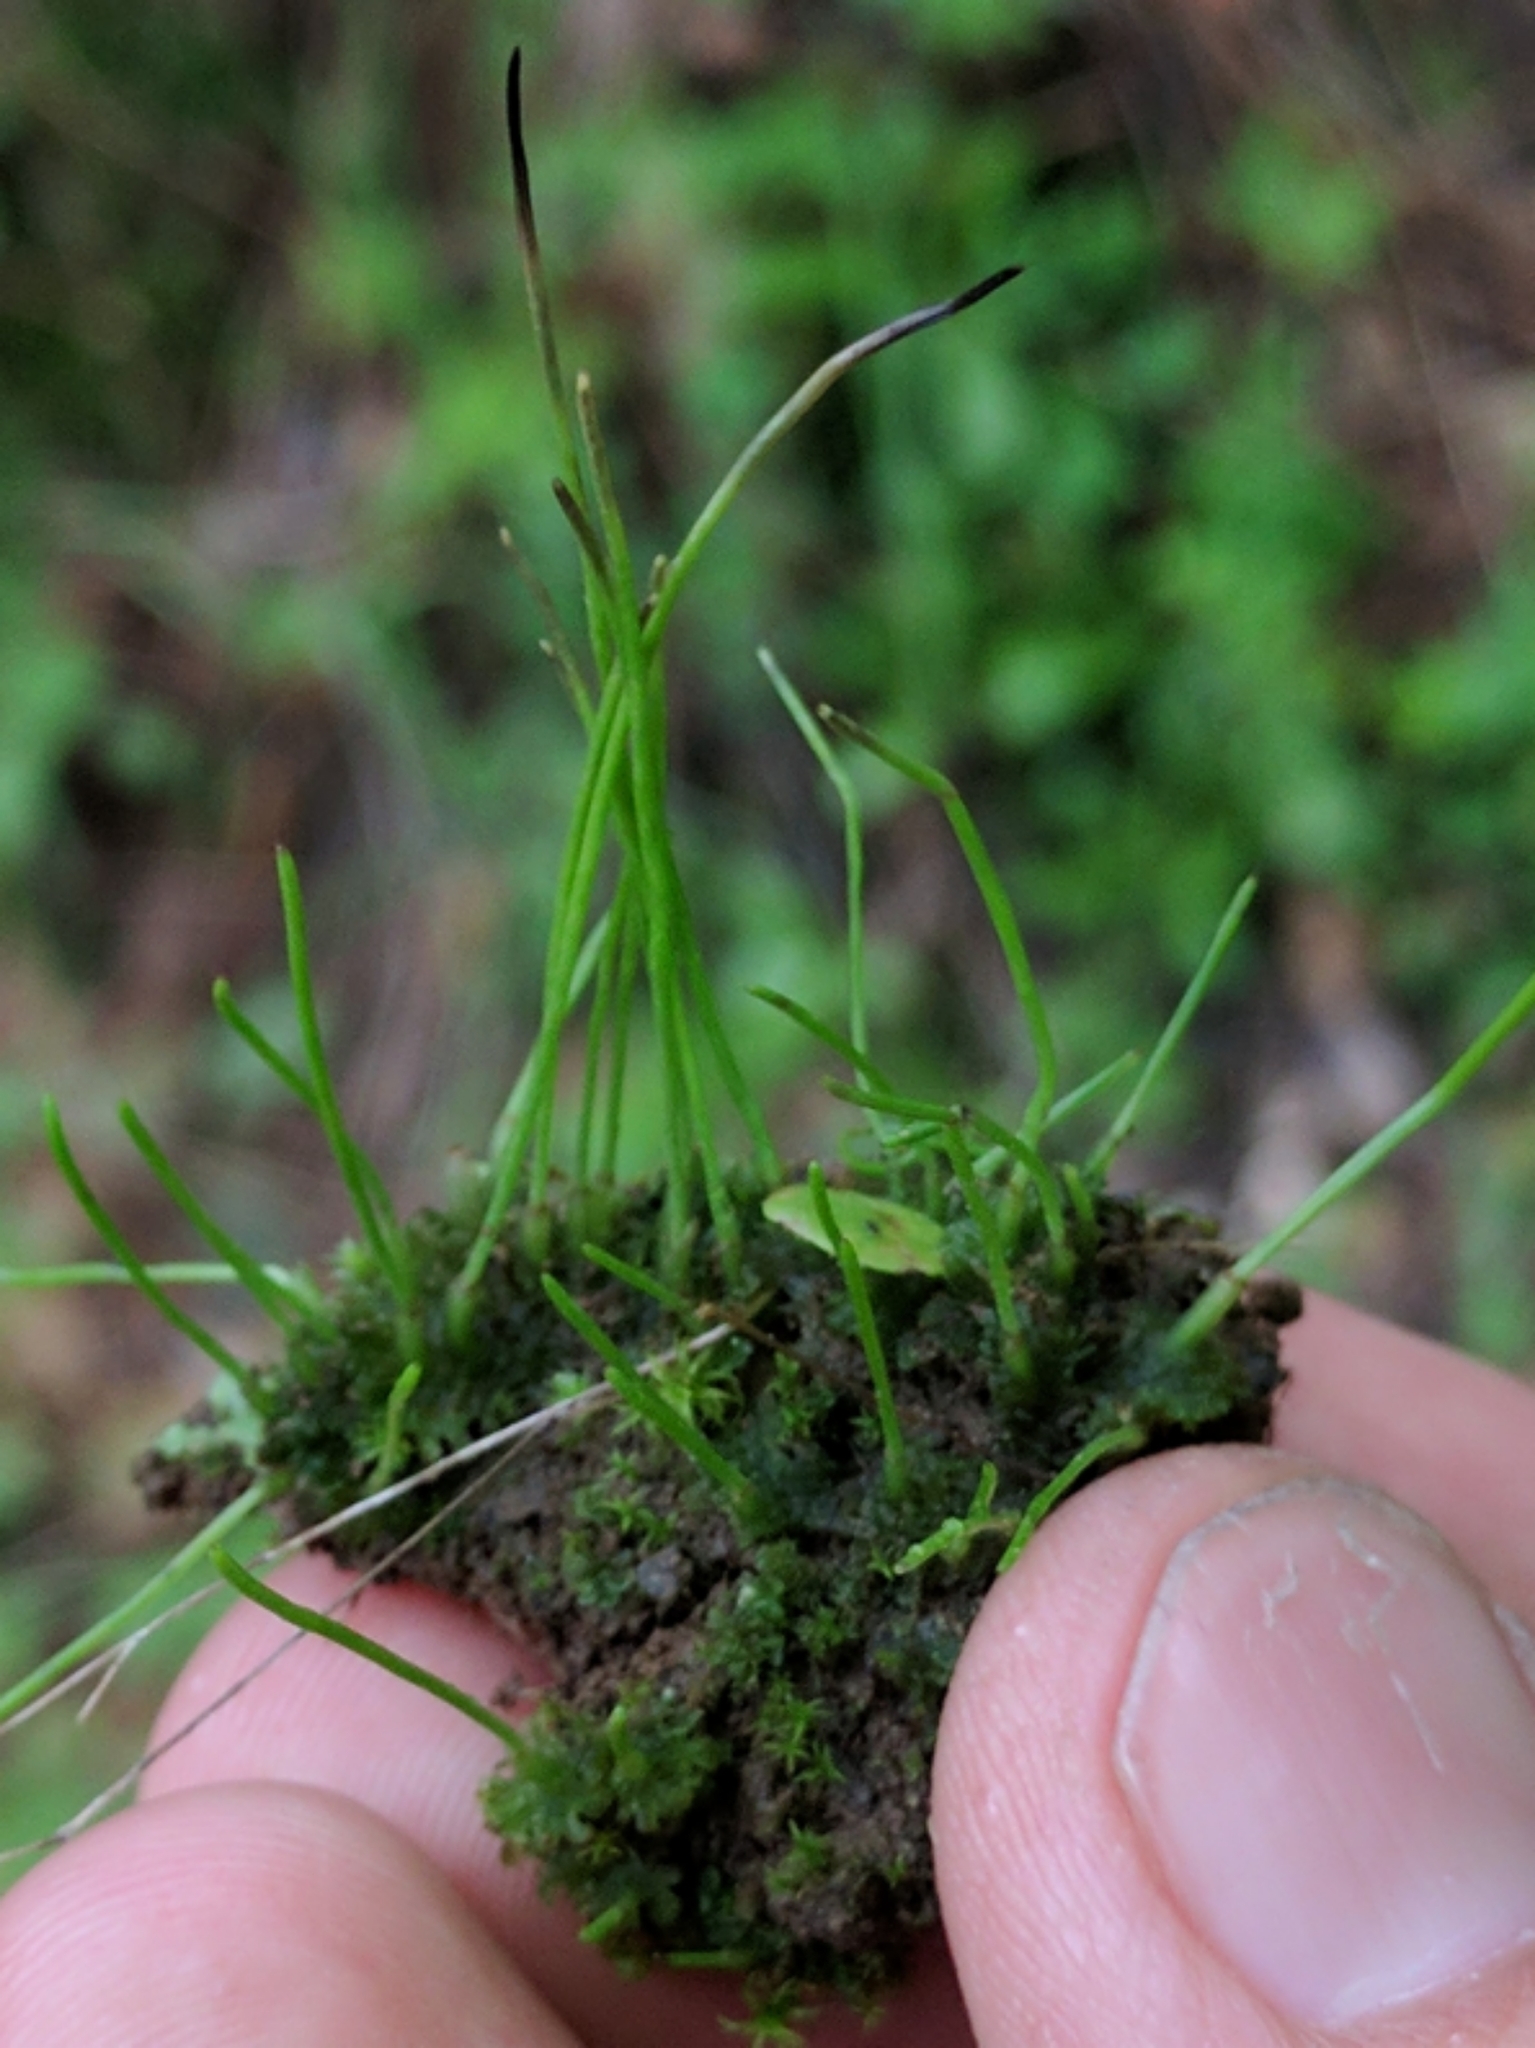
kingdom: Plantae
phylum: Anthocerotophyta
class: Anthocerotopsida
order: Anthocerotales
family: Anthocerotaceae
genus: Anthoceros
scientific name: Anthoceros fusiformis
